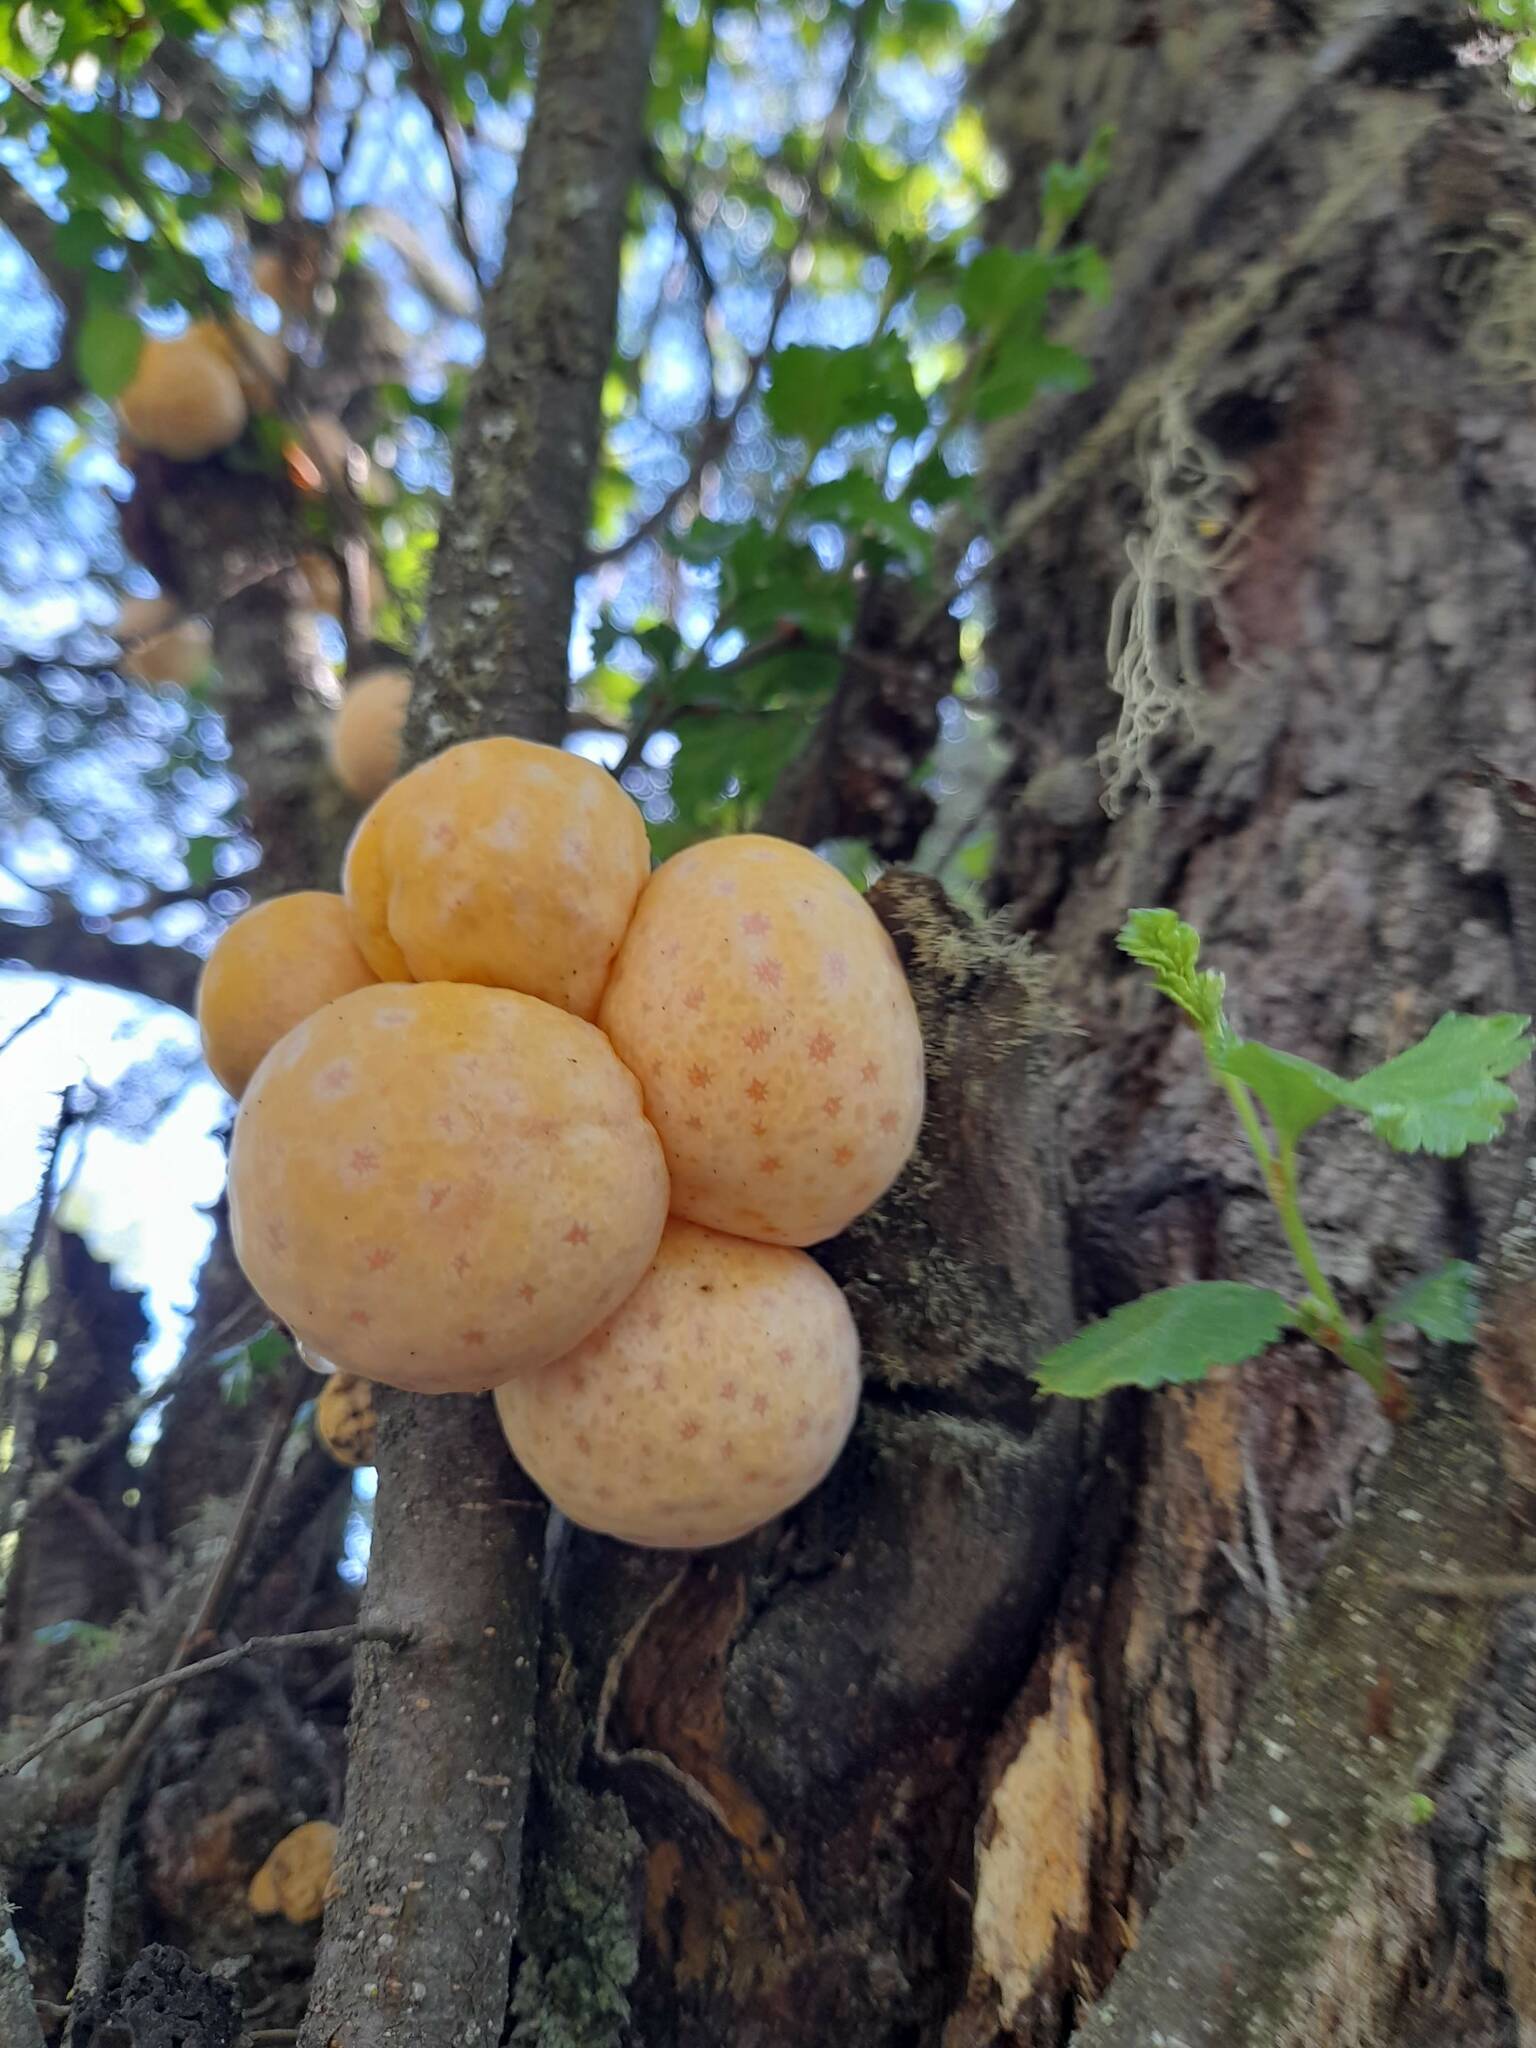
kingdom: Fungi
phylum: Ascomycota
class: Leotiomycetes
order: Cyttariales
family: Cyttariaceae
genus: Cyttaria
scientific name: Cyttaria hariotii
